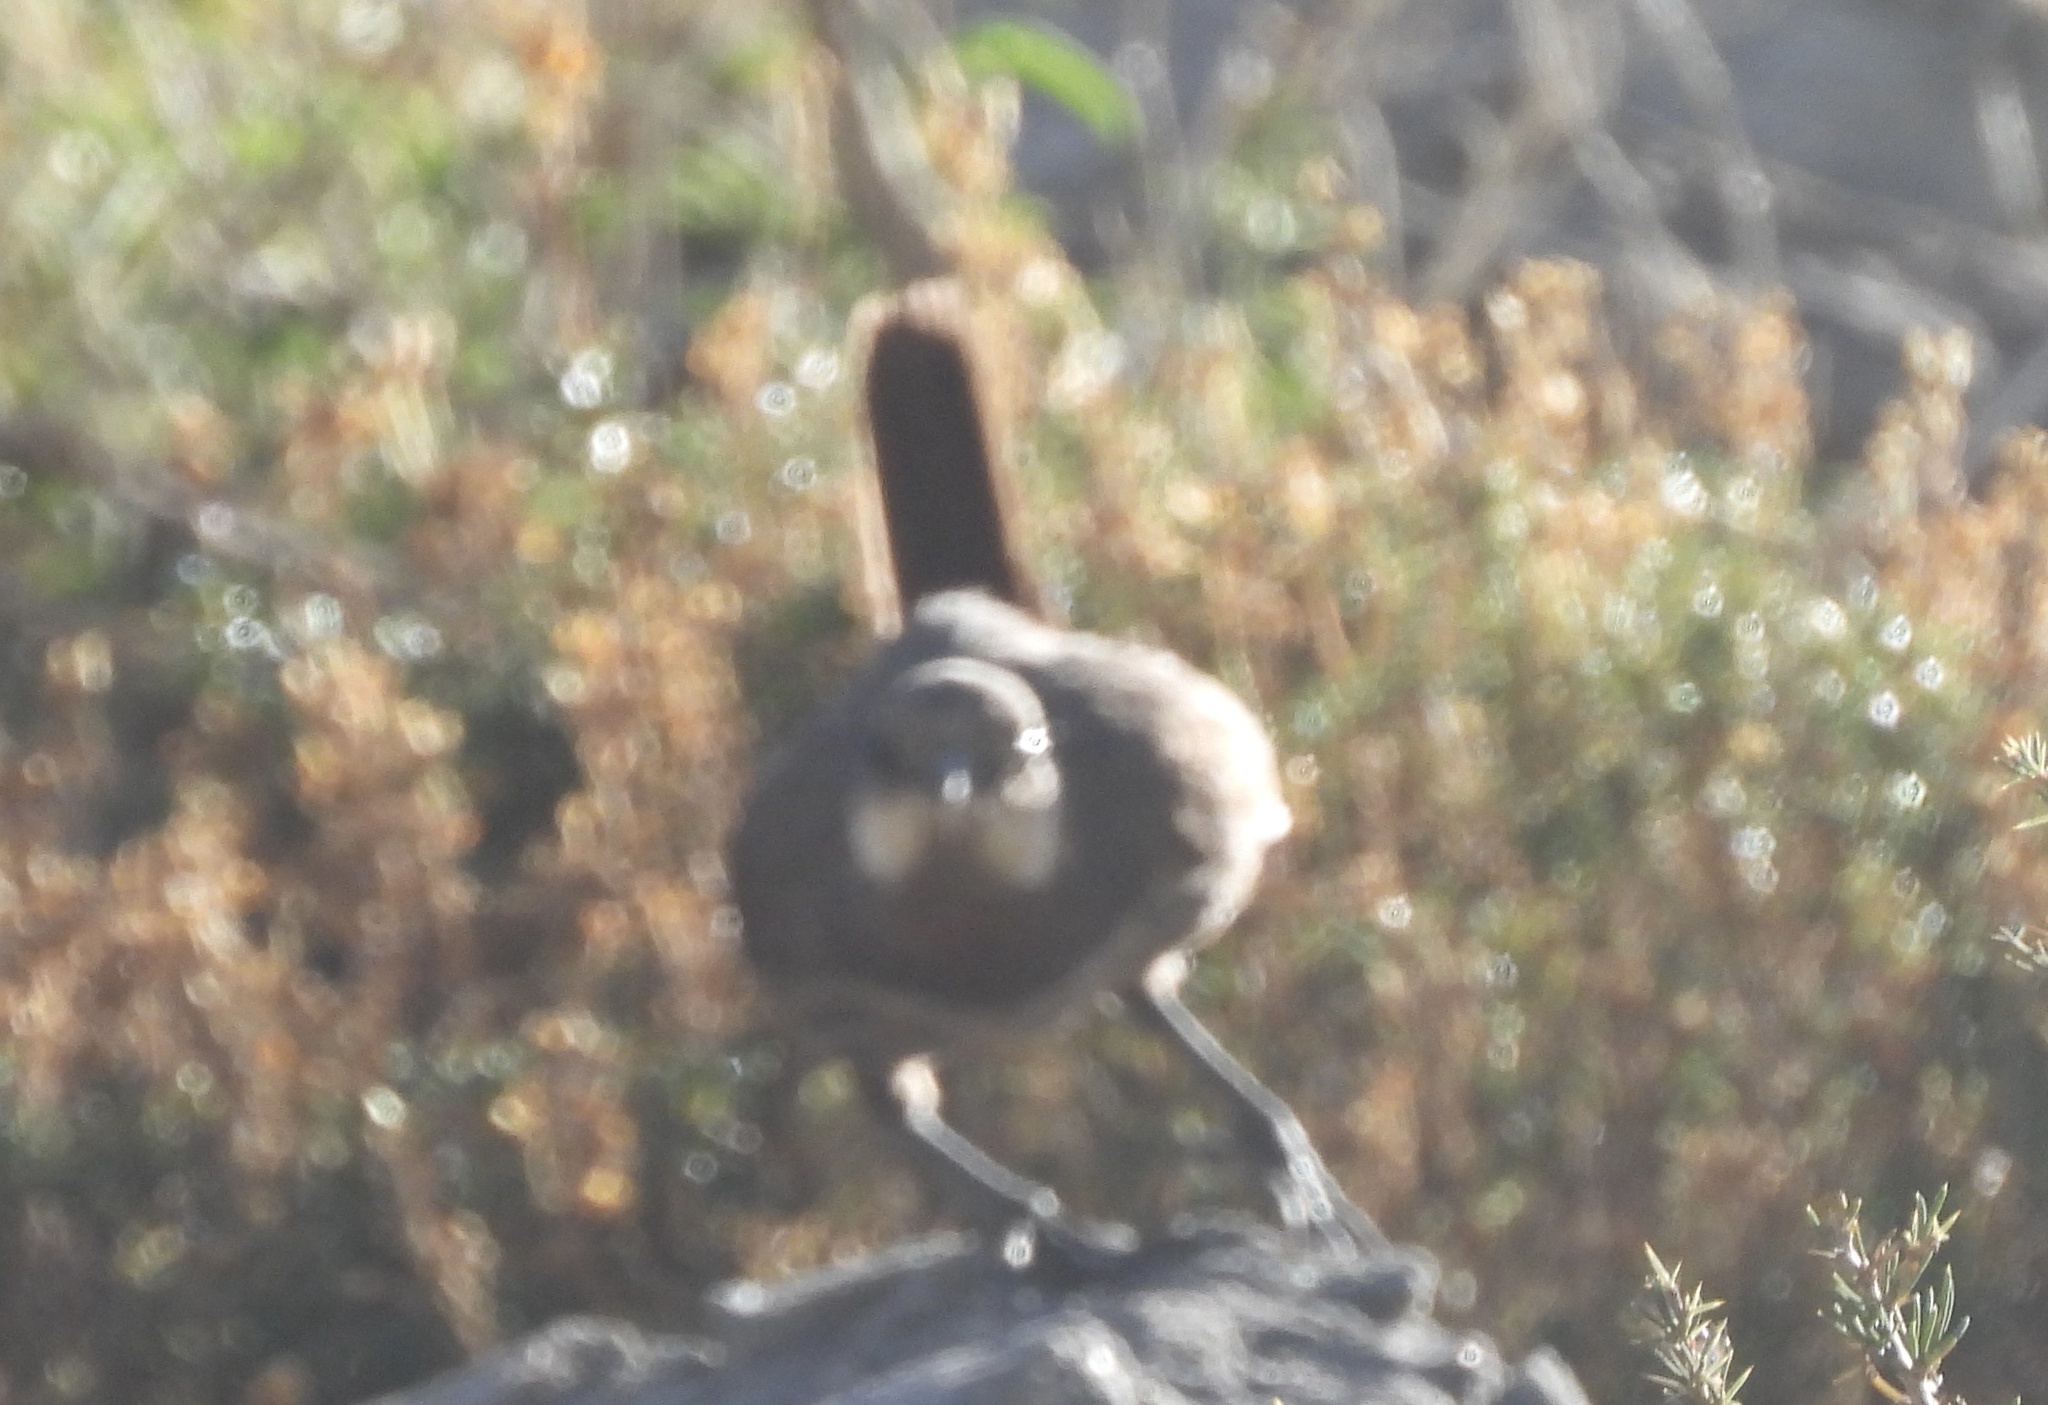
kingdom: Animalia
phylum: Chordata
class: Aves
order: Passeriformes
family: Rhinocryptidae
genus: Pteroptochos
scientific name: Pteroptochos megapodius
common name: Moustached turca
